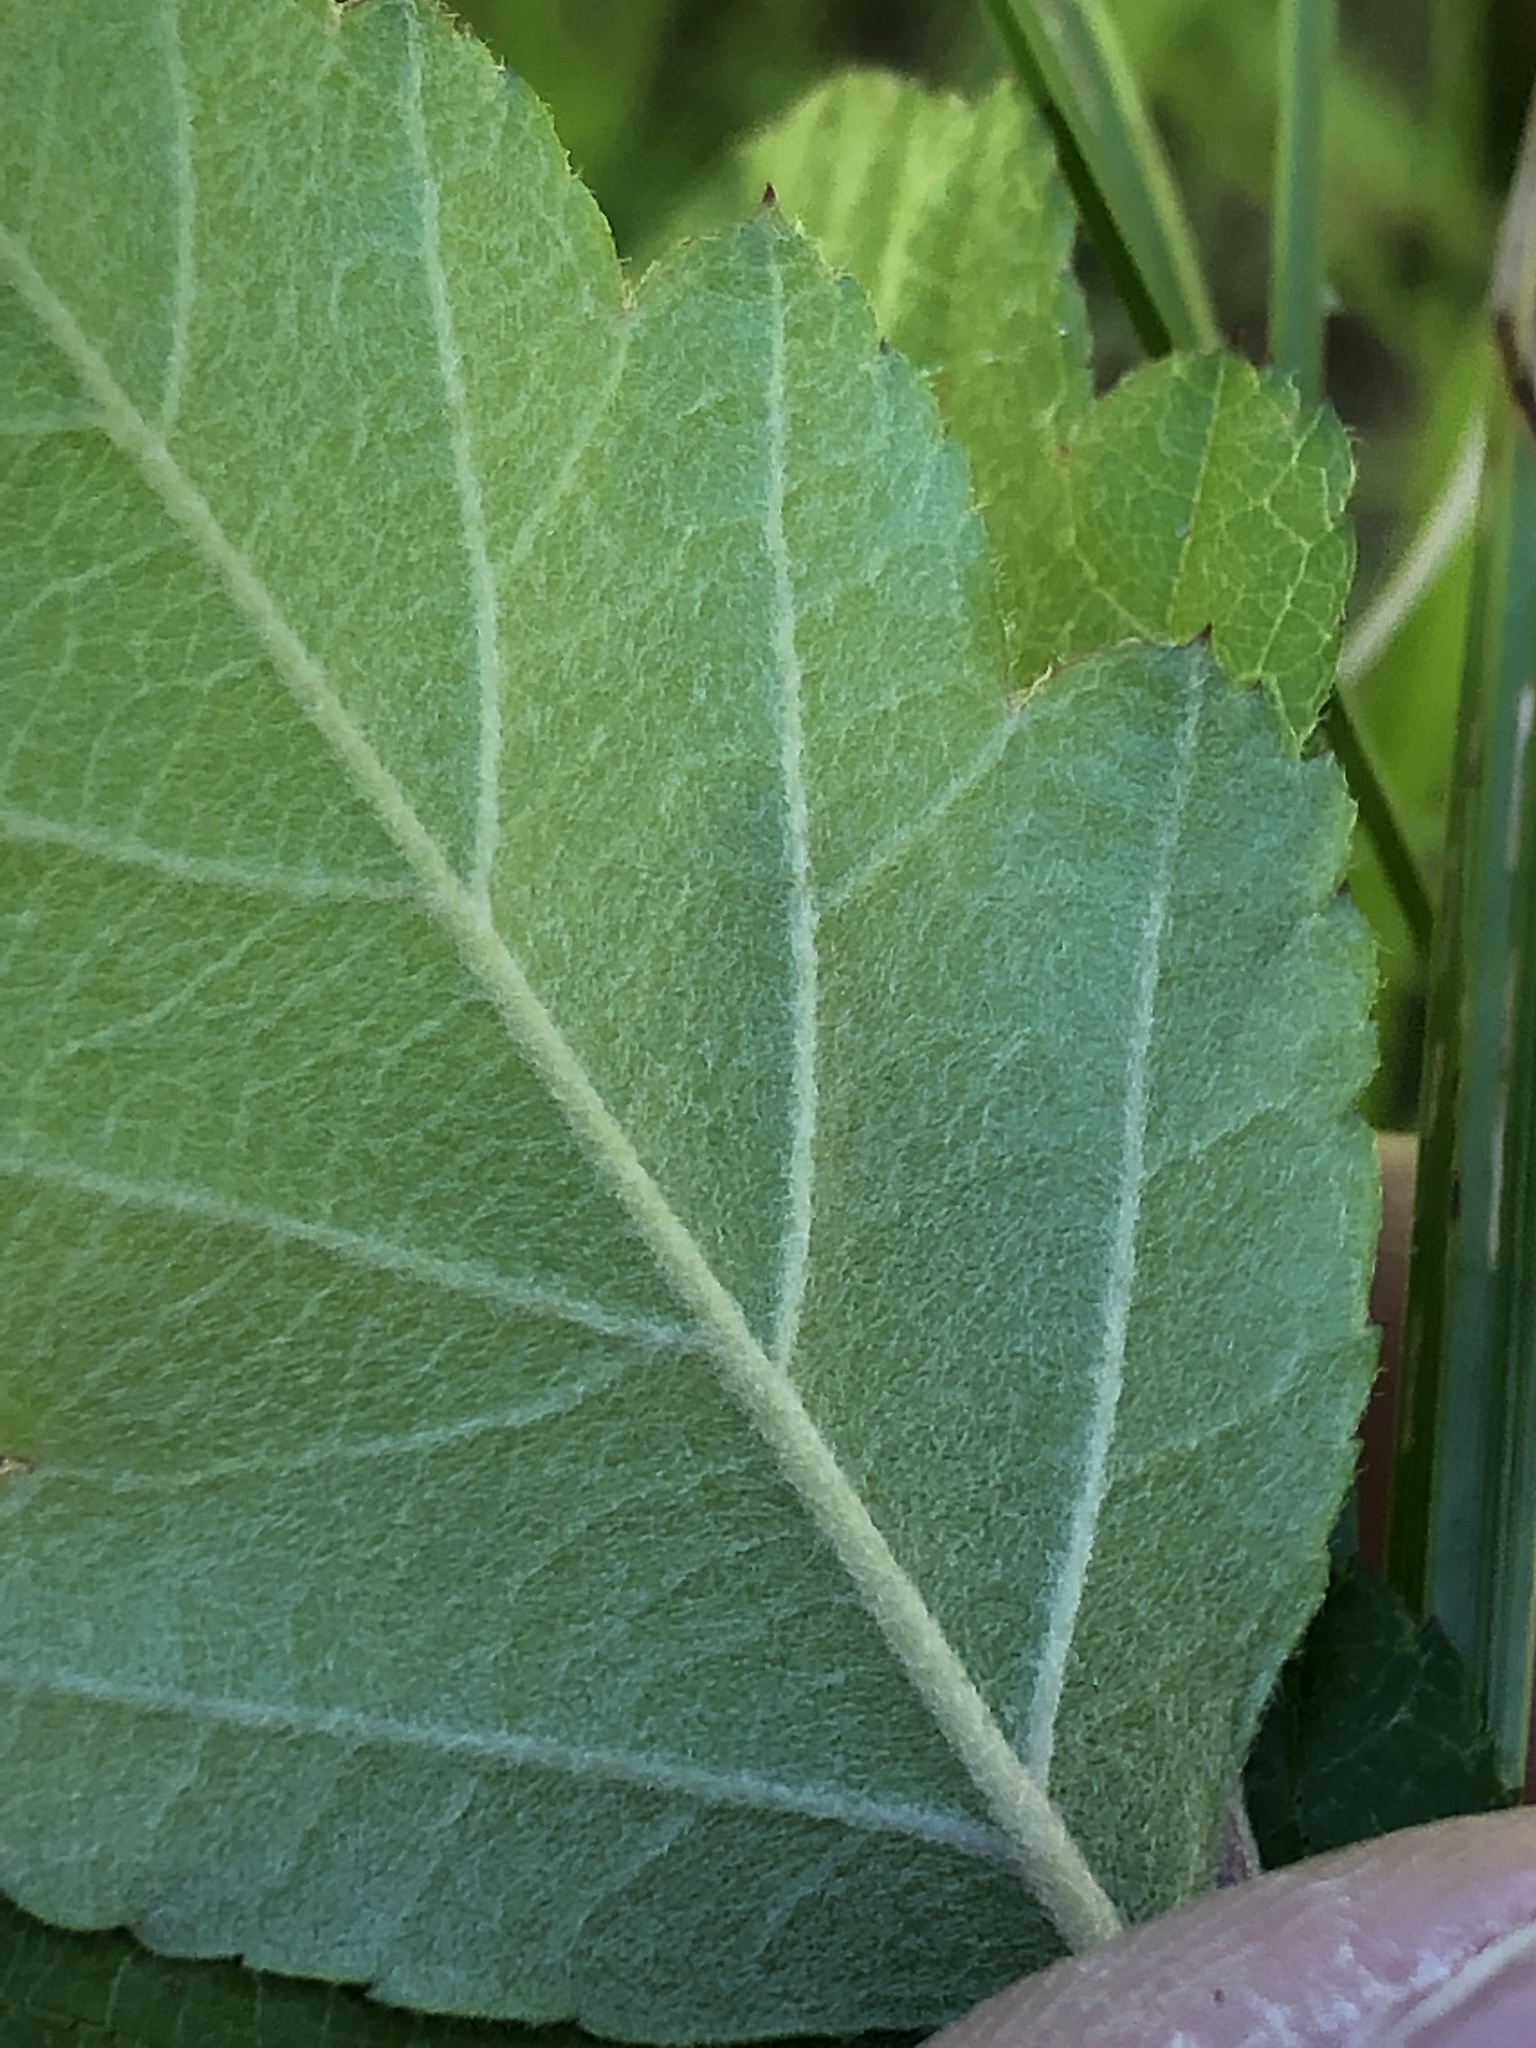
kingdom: Plantae
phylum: Tracheophyta
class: Magnoliopsida
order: Rosales
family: Rosaceae
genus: Malus
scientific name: Malus ioensis
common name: Iowa crab apple
